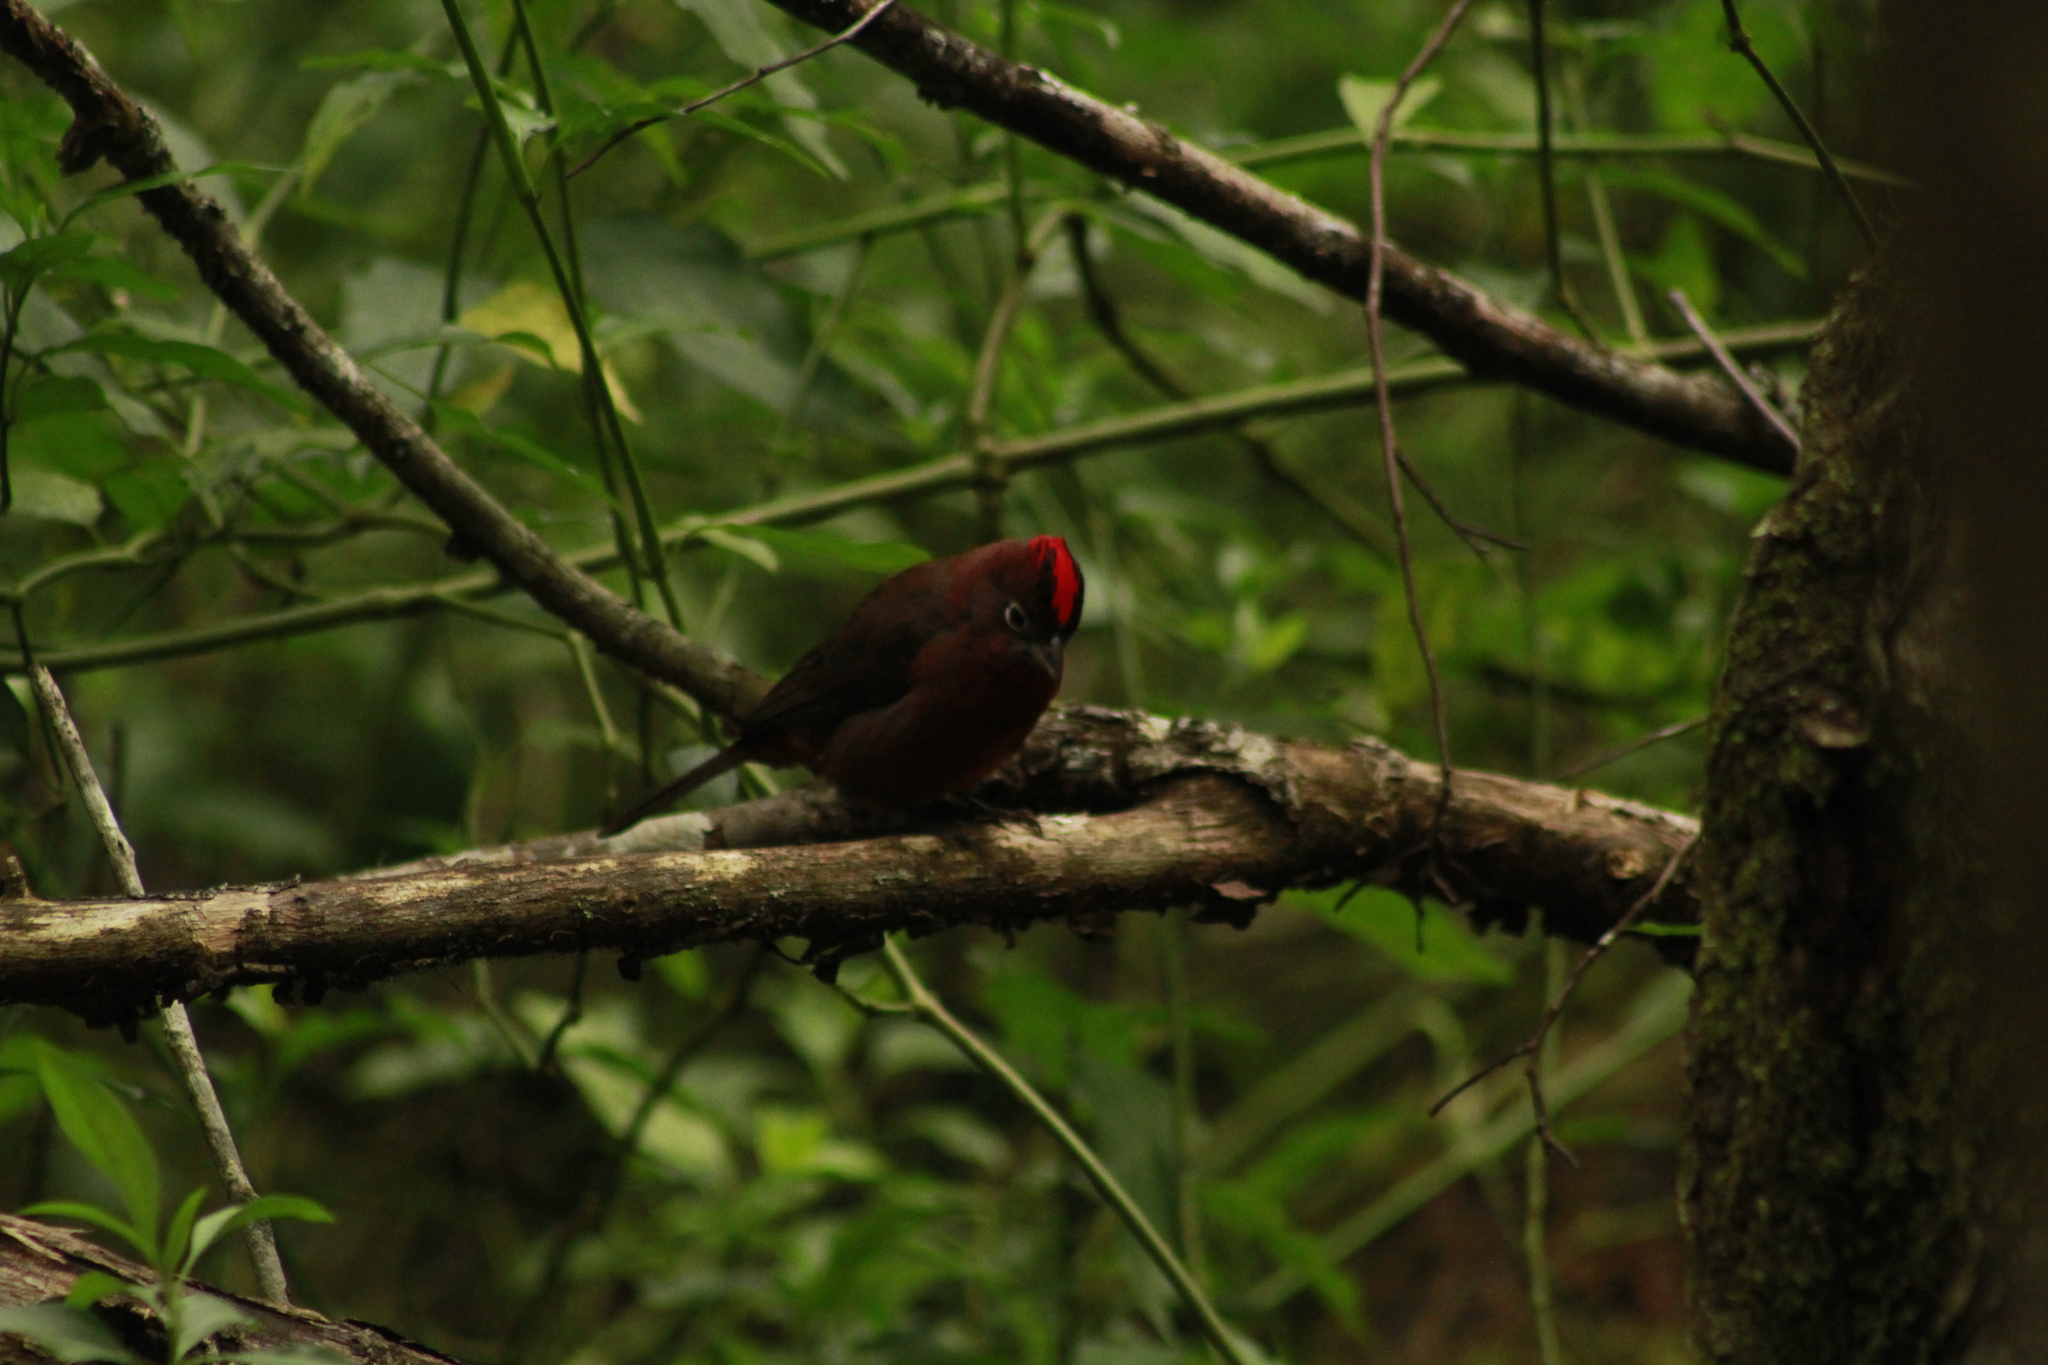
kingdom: Animalia
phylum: Chordata
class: Aves
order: Passeriformes
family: Thraupidae
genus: Coryphospingus
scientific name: Coryphospingus cucullatus
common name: Red pileated finch
